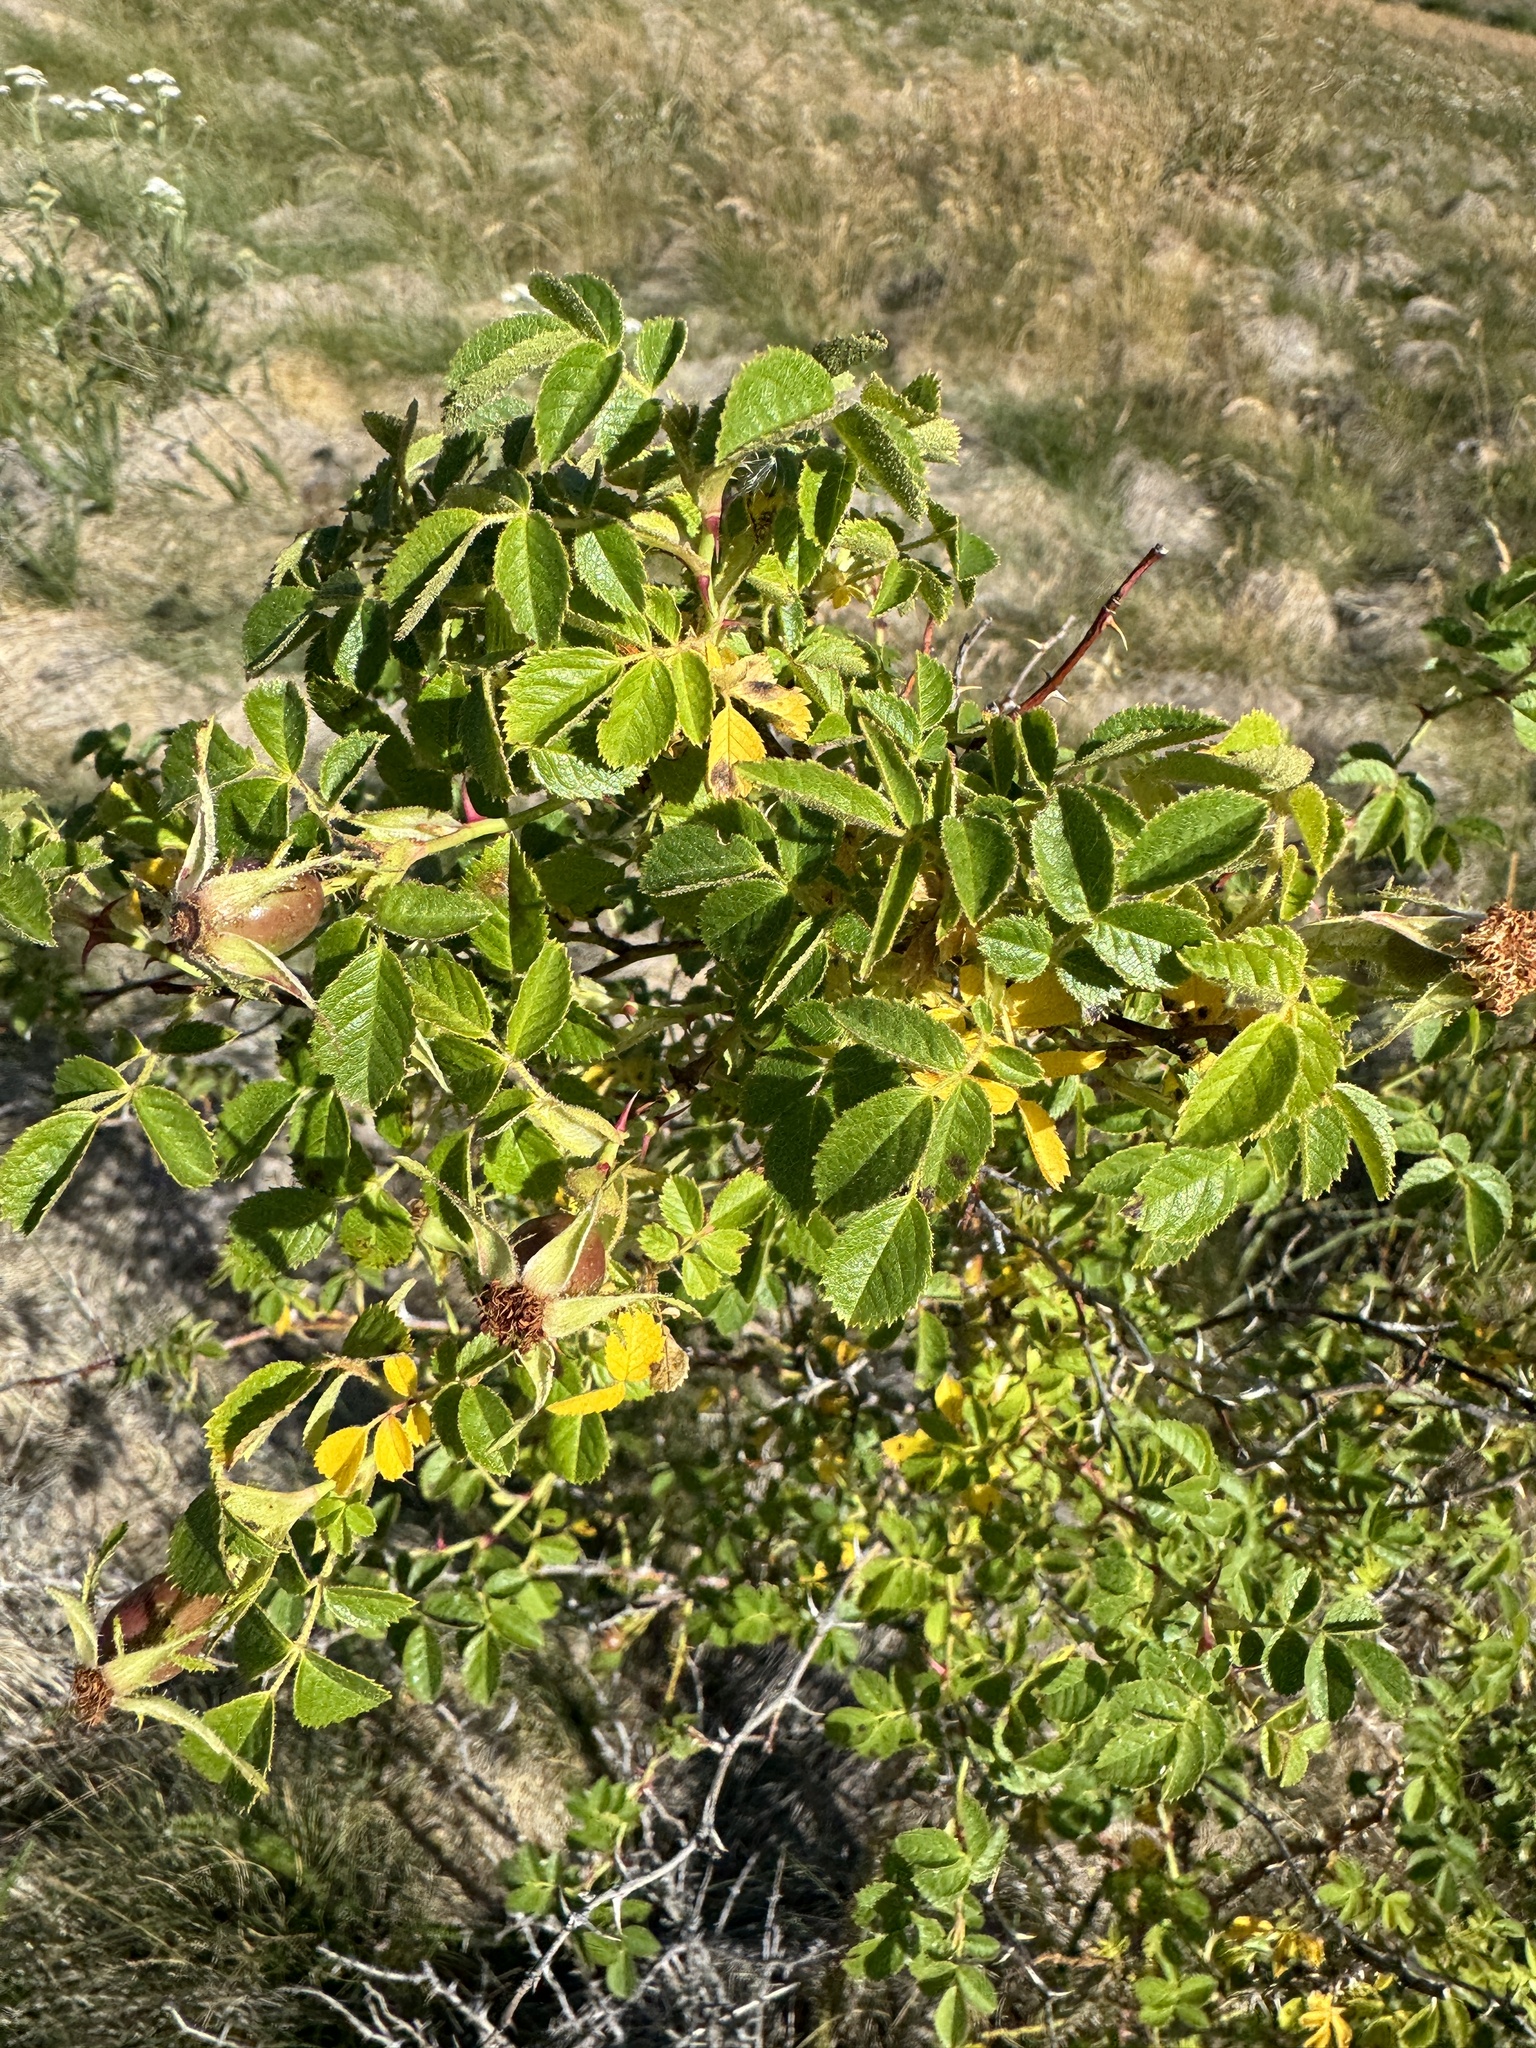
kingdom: Plantae
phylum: Tracheophyta
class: Magnoliopsida
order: Rosales
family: Rosaceae
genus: Rosa
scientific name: Rosa rubiginosa
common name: Sweet-briar
